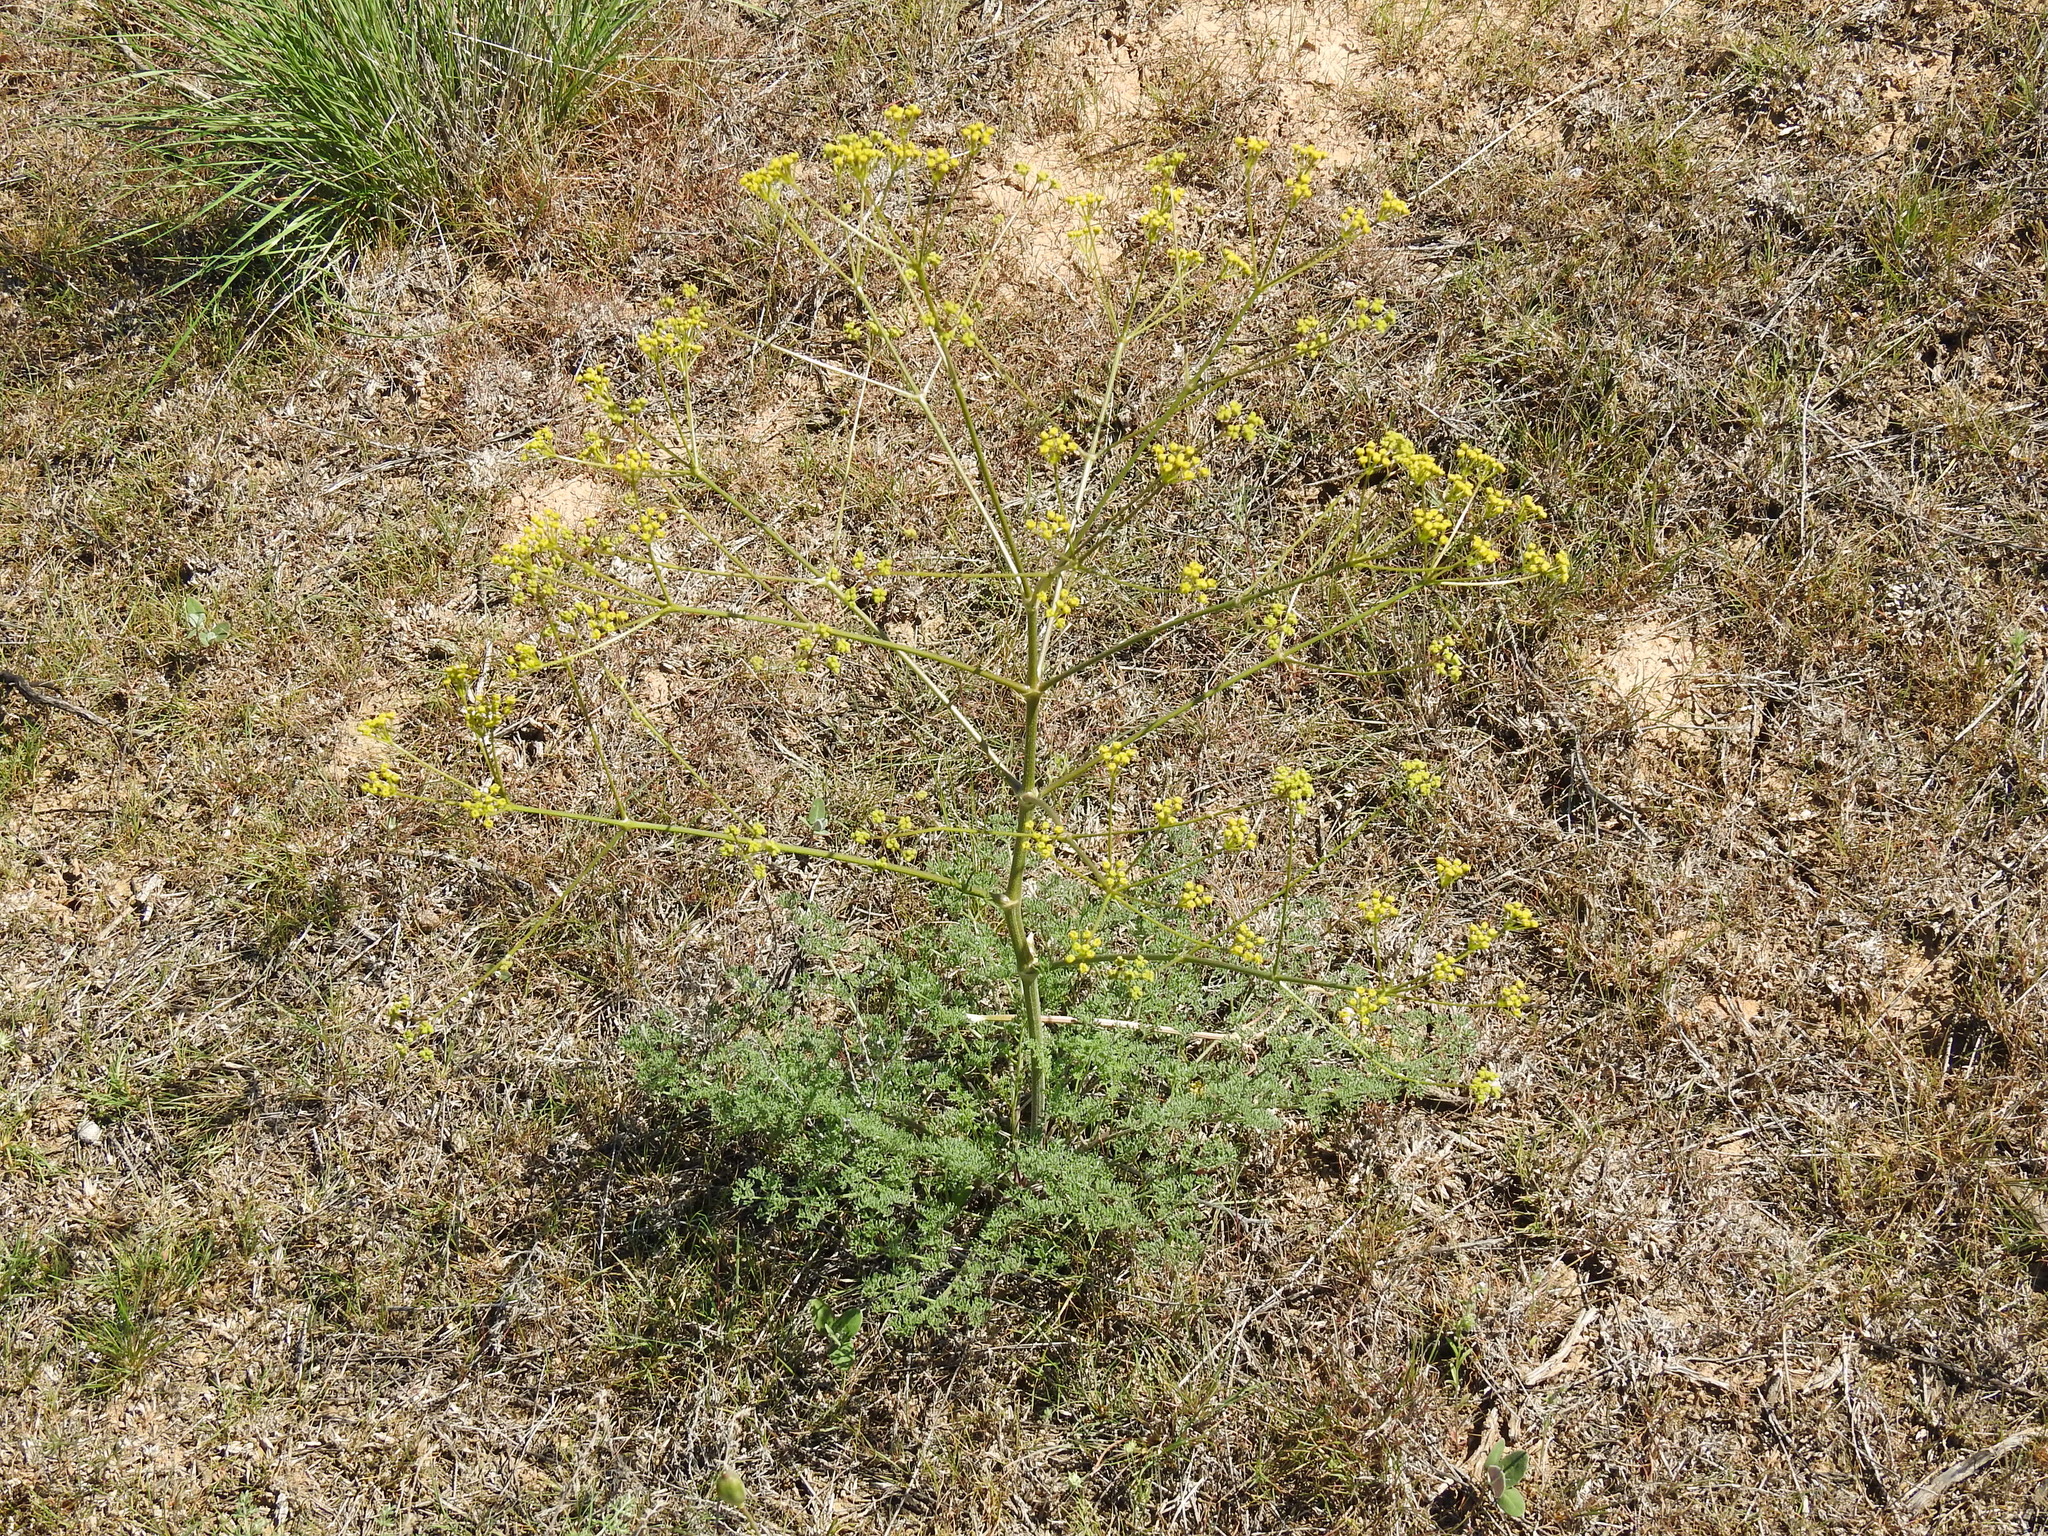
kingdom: Plantae
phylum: Tracheophyta
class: Magnoliopsida
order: Apiales
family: Apiaceae
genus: Ferula
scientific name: Ferula caspica
